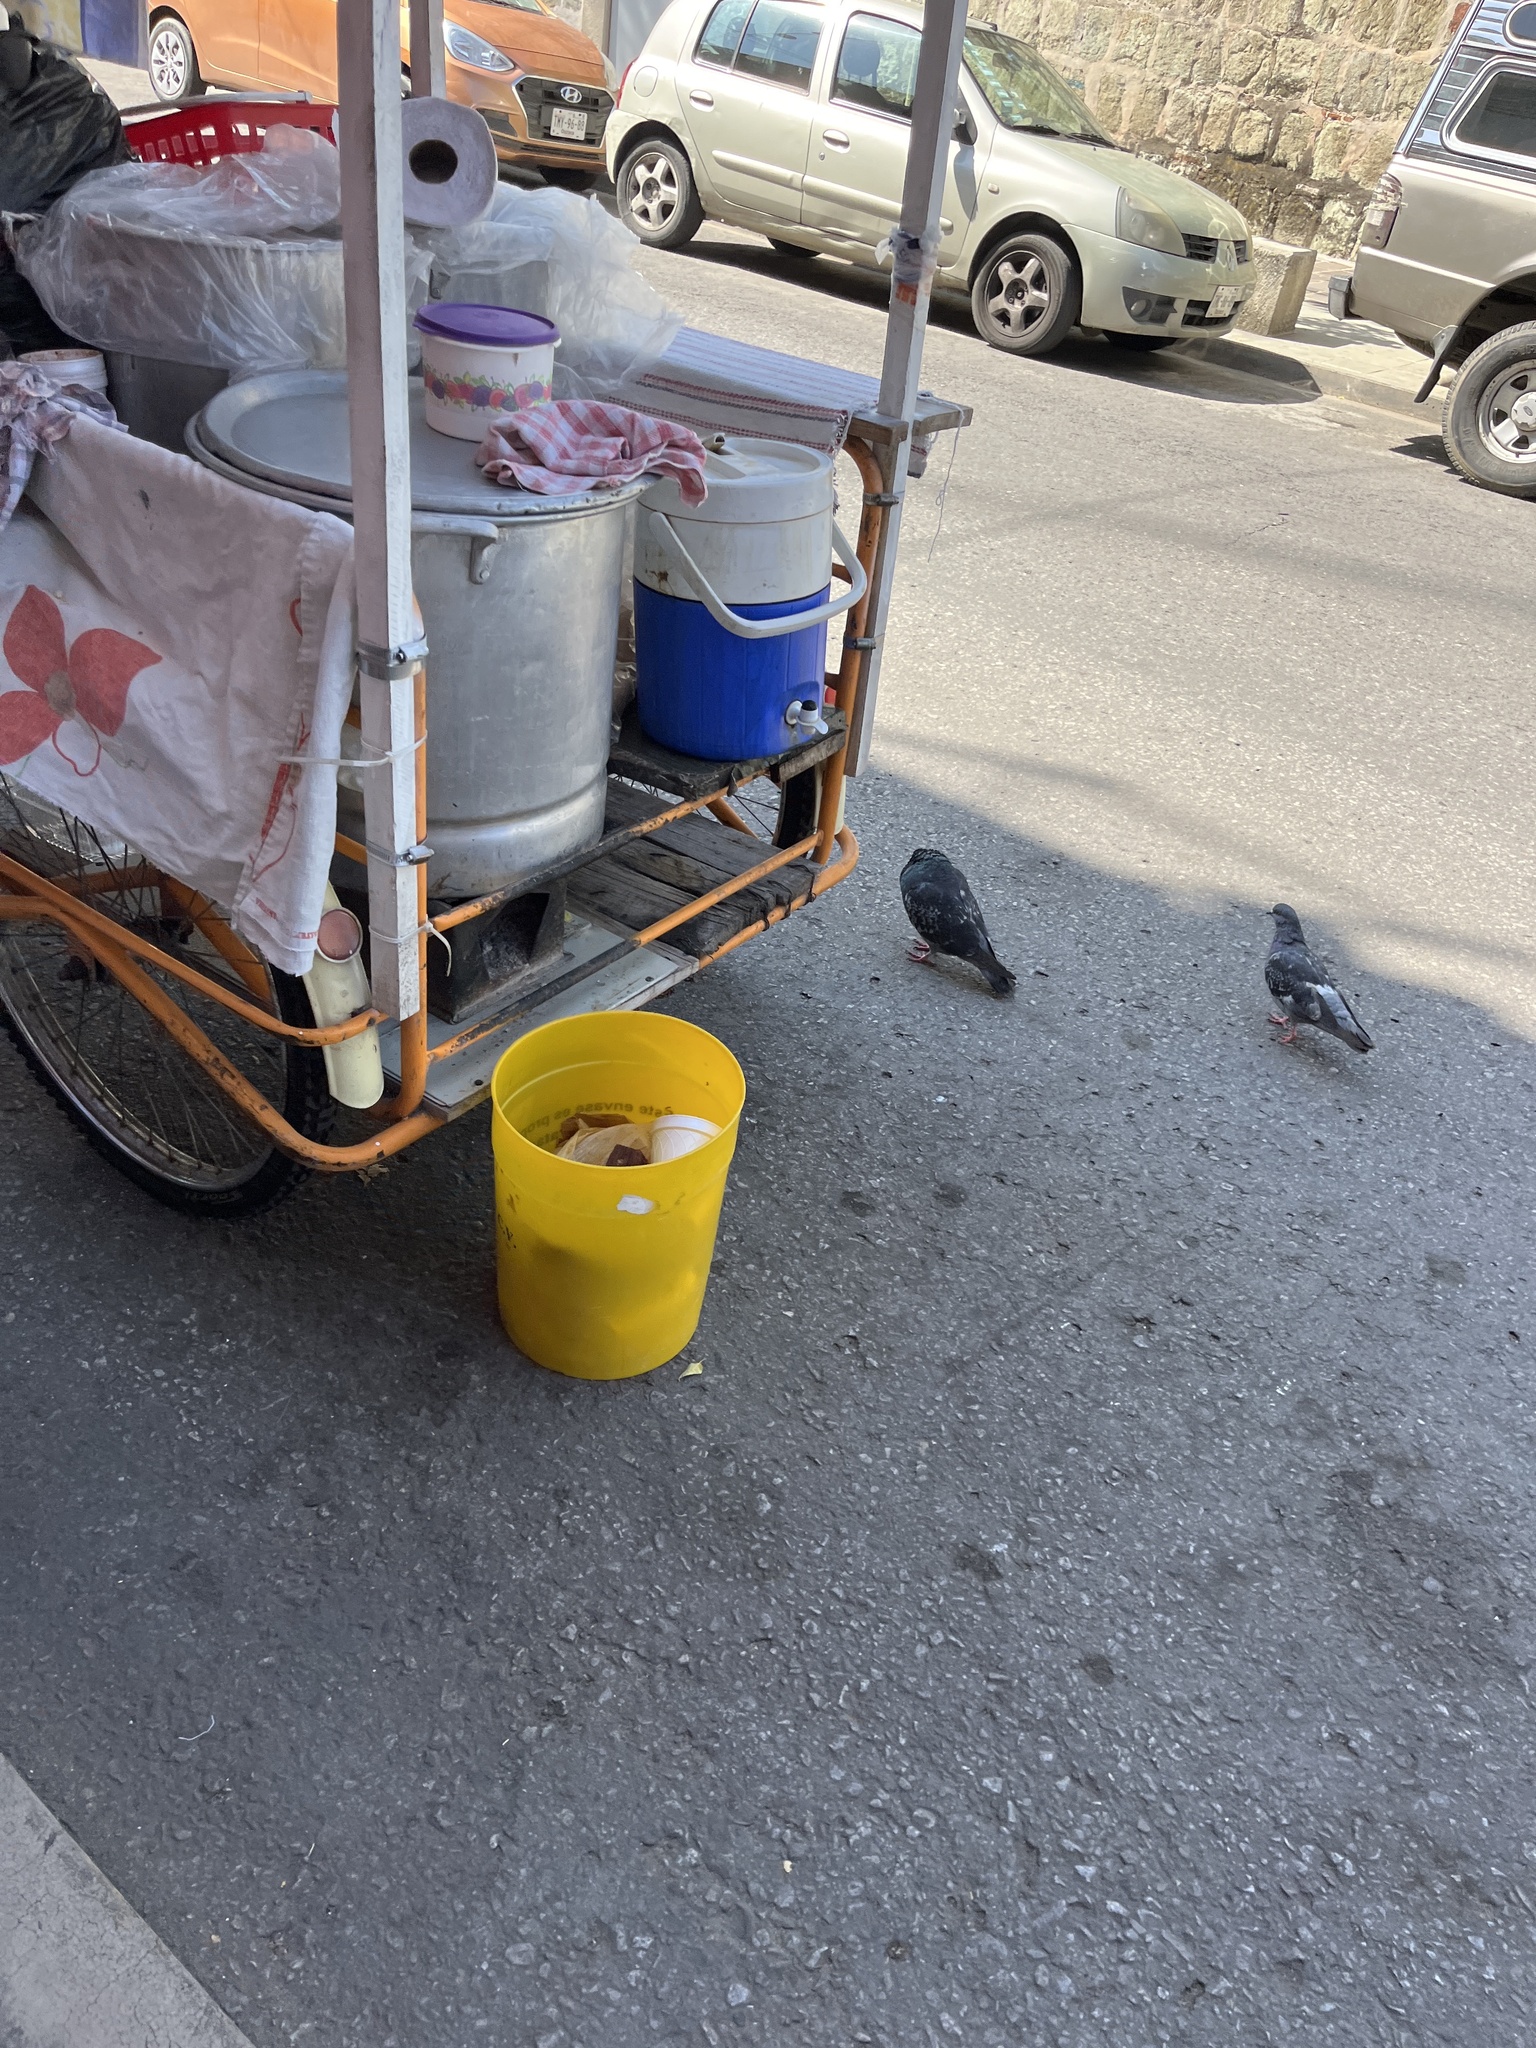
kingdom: Animalia
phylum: Chordata
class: Aves
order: Columbiformes
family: Columbidae
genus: Columba
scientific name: Columba livia
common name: Rock pigeon
